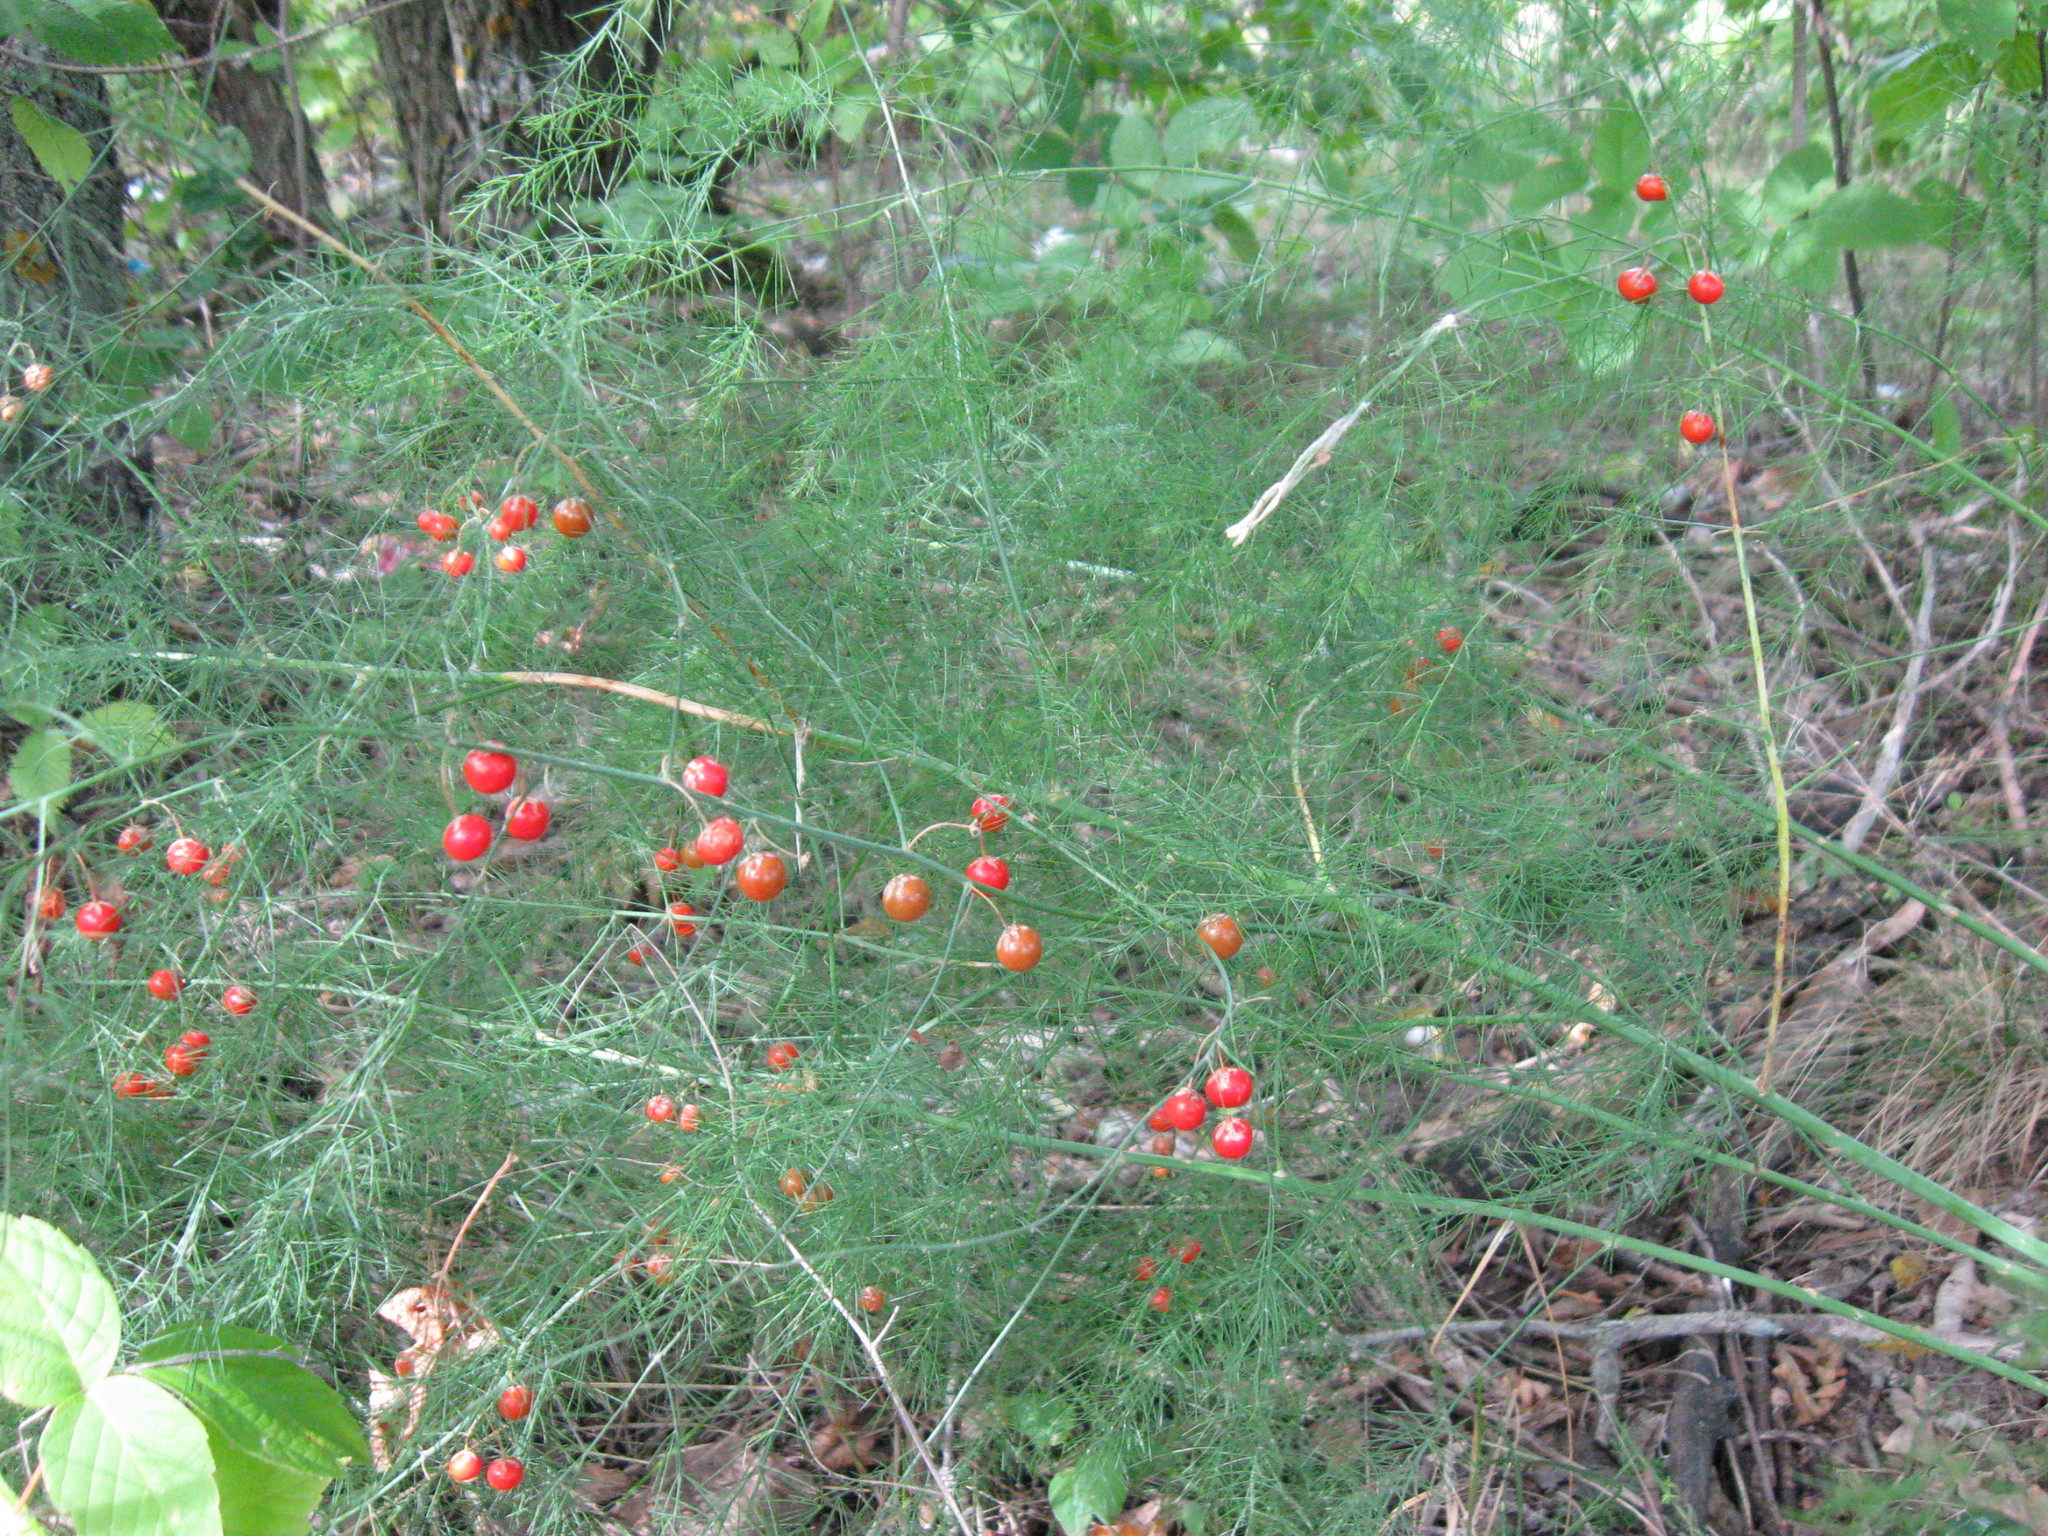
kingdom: Plantae
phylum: Tracheophyta
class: Liliopsida
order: Asparagales
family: Asparagaceae
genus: Asparagus
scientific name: Asparagus officinalis
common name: Garden asparagus
